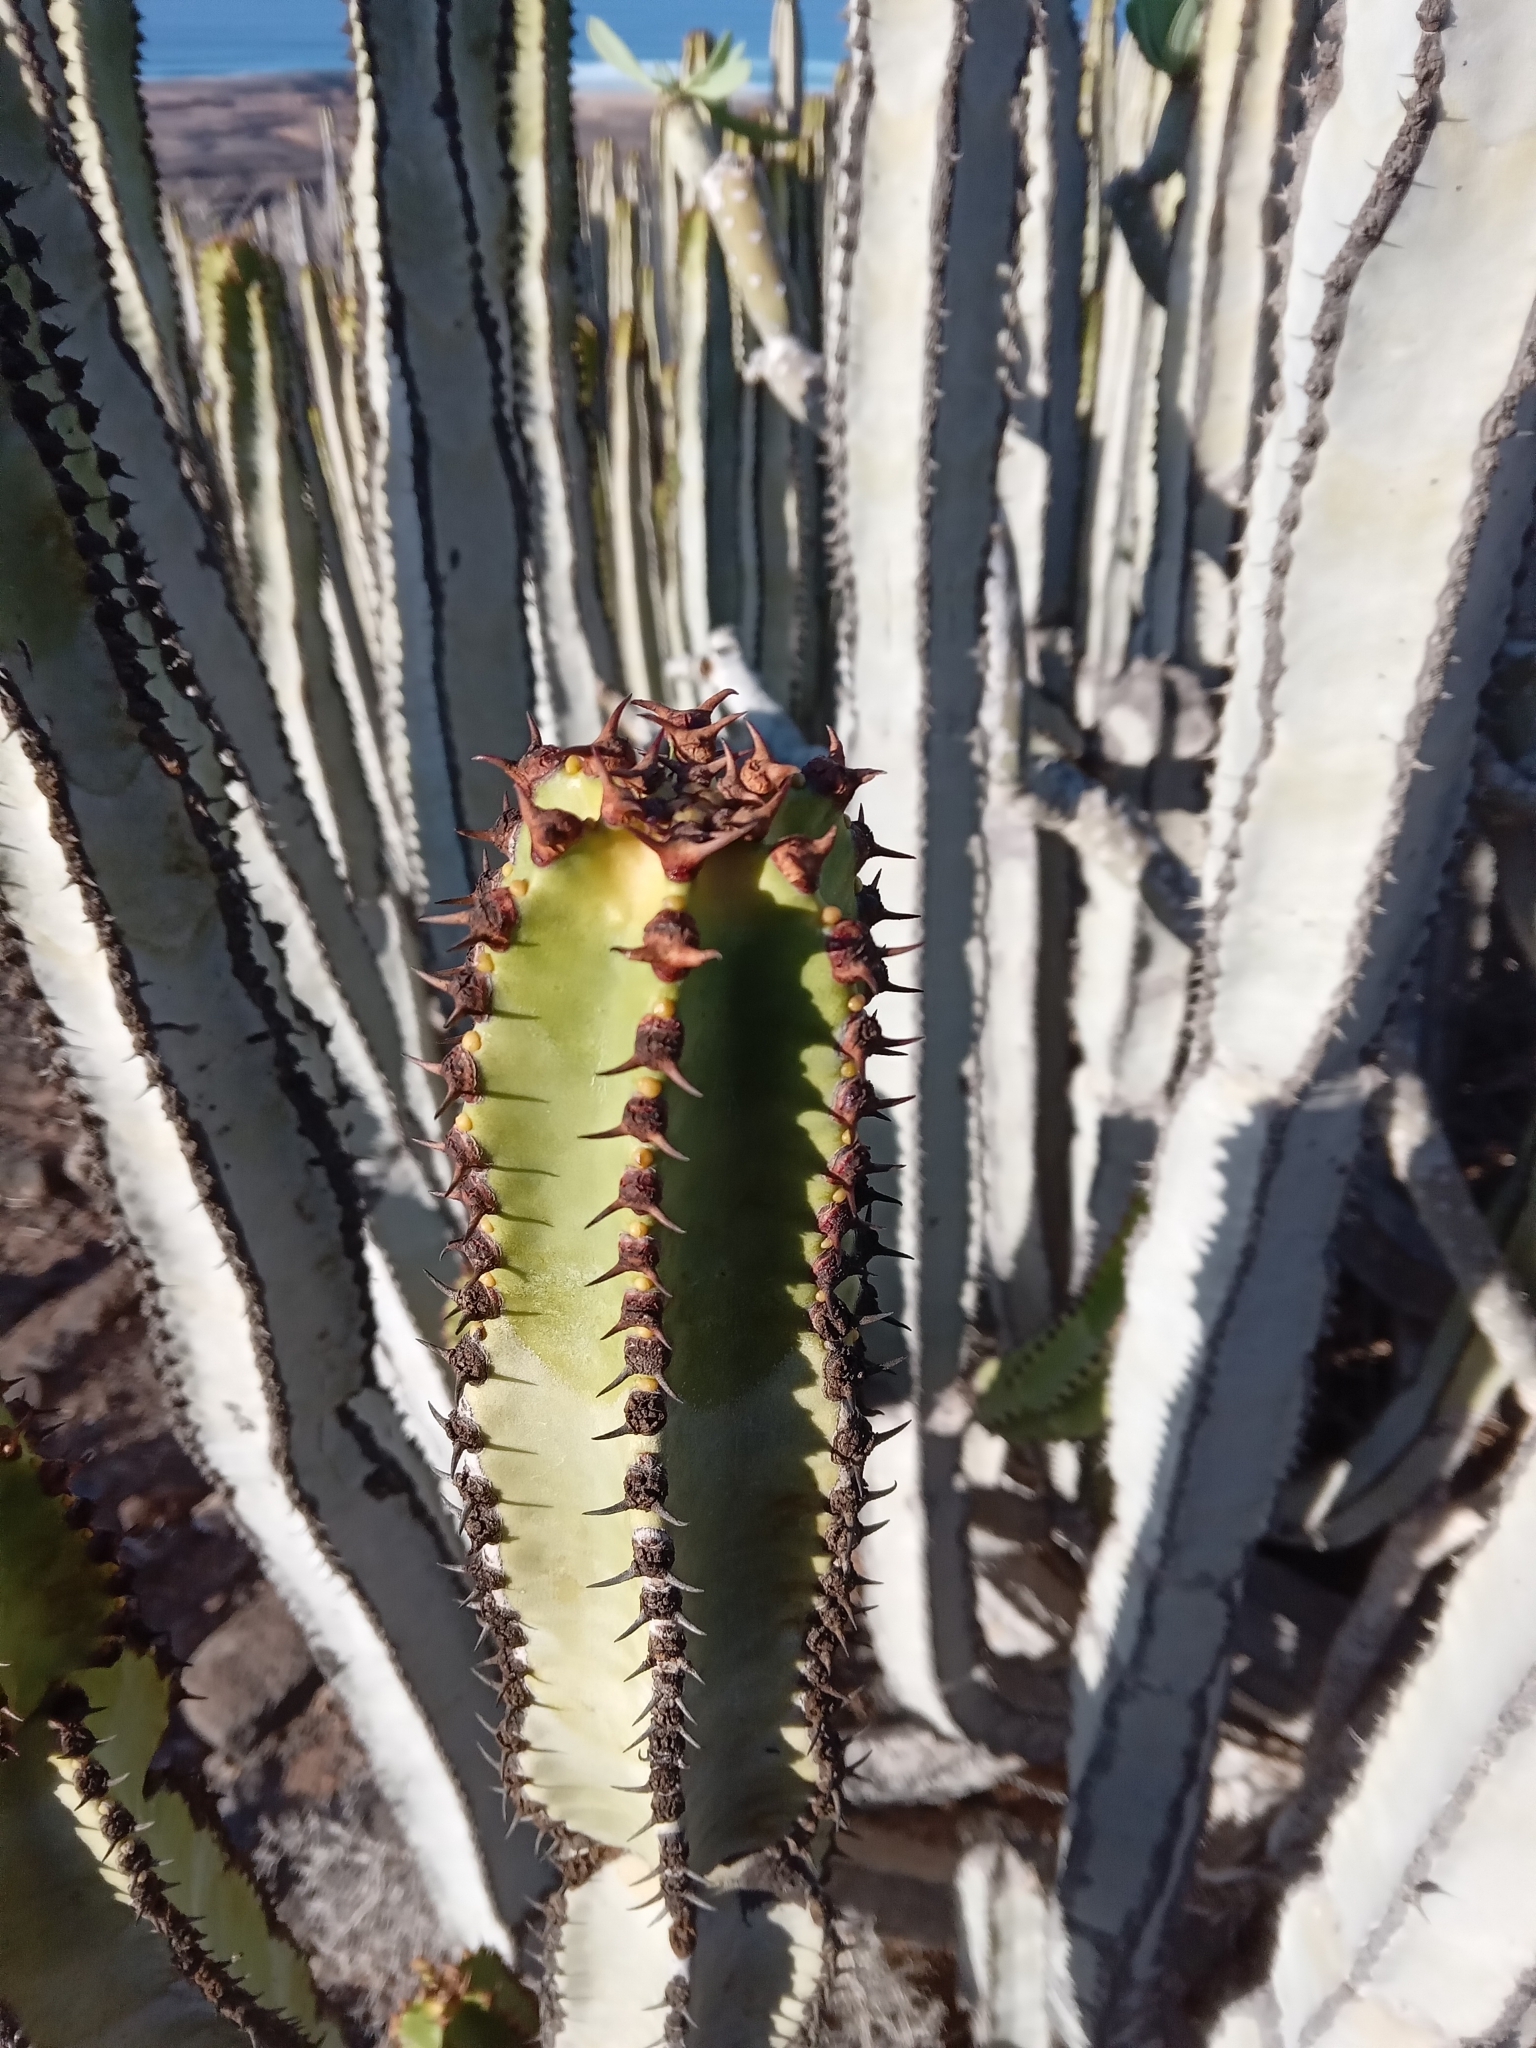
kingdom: Plantae
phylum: Tracheophyta
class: Magnoliopsida
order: Malpighiales
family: Euphorbiaceae
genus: Euphorbia
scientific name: Euphorbia canariensis
